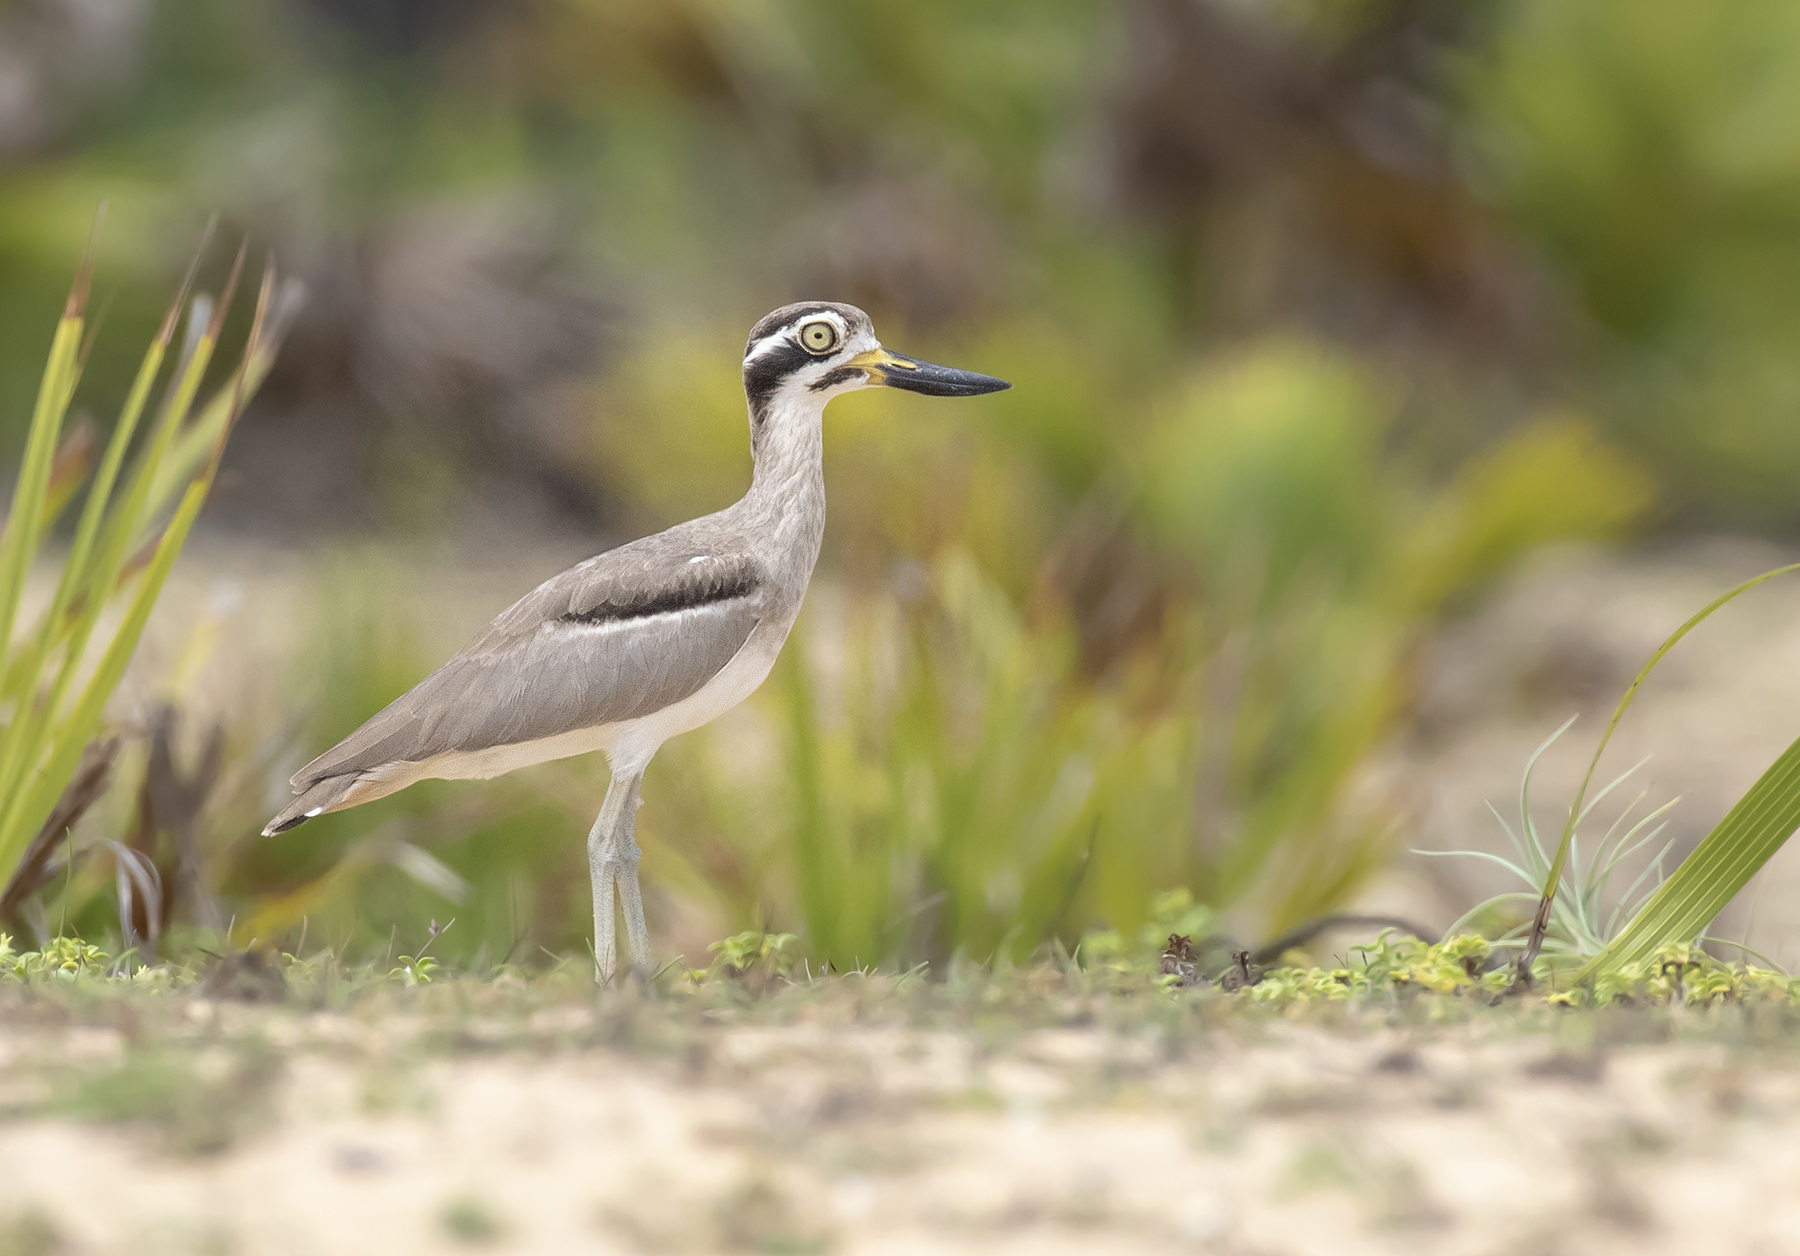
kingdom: Animalia
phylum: Chordata
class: Aves
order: Charadriiformes
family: Burhinidae
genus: Esacus
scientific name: Esacus recurvirostris
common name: Great stone-curlew
